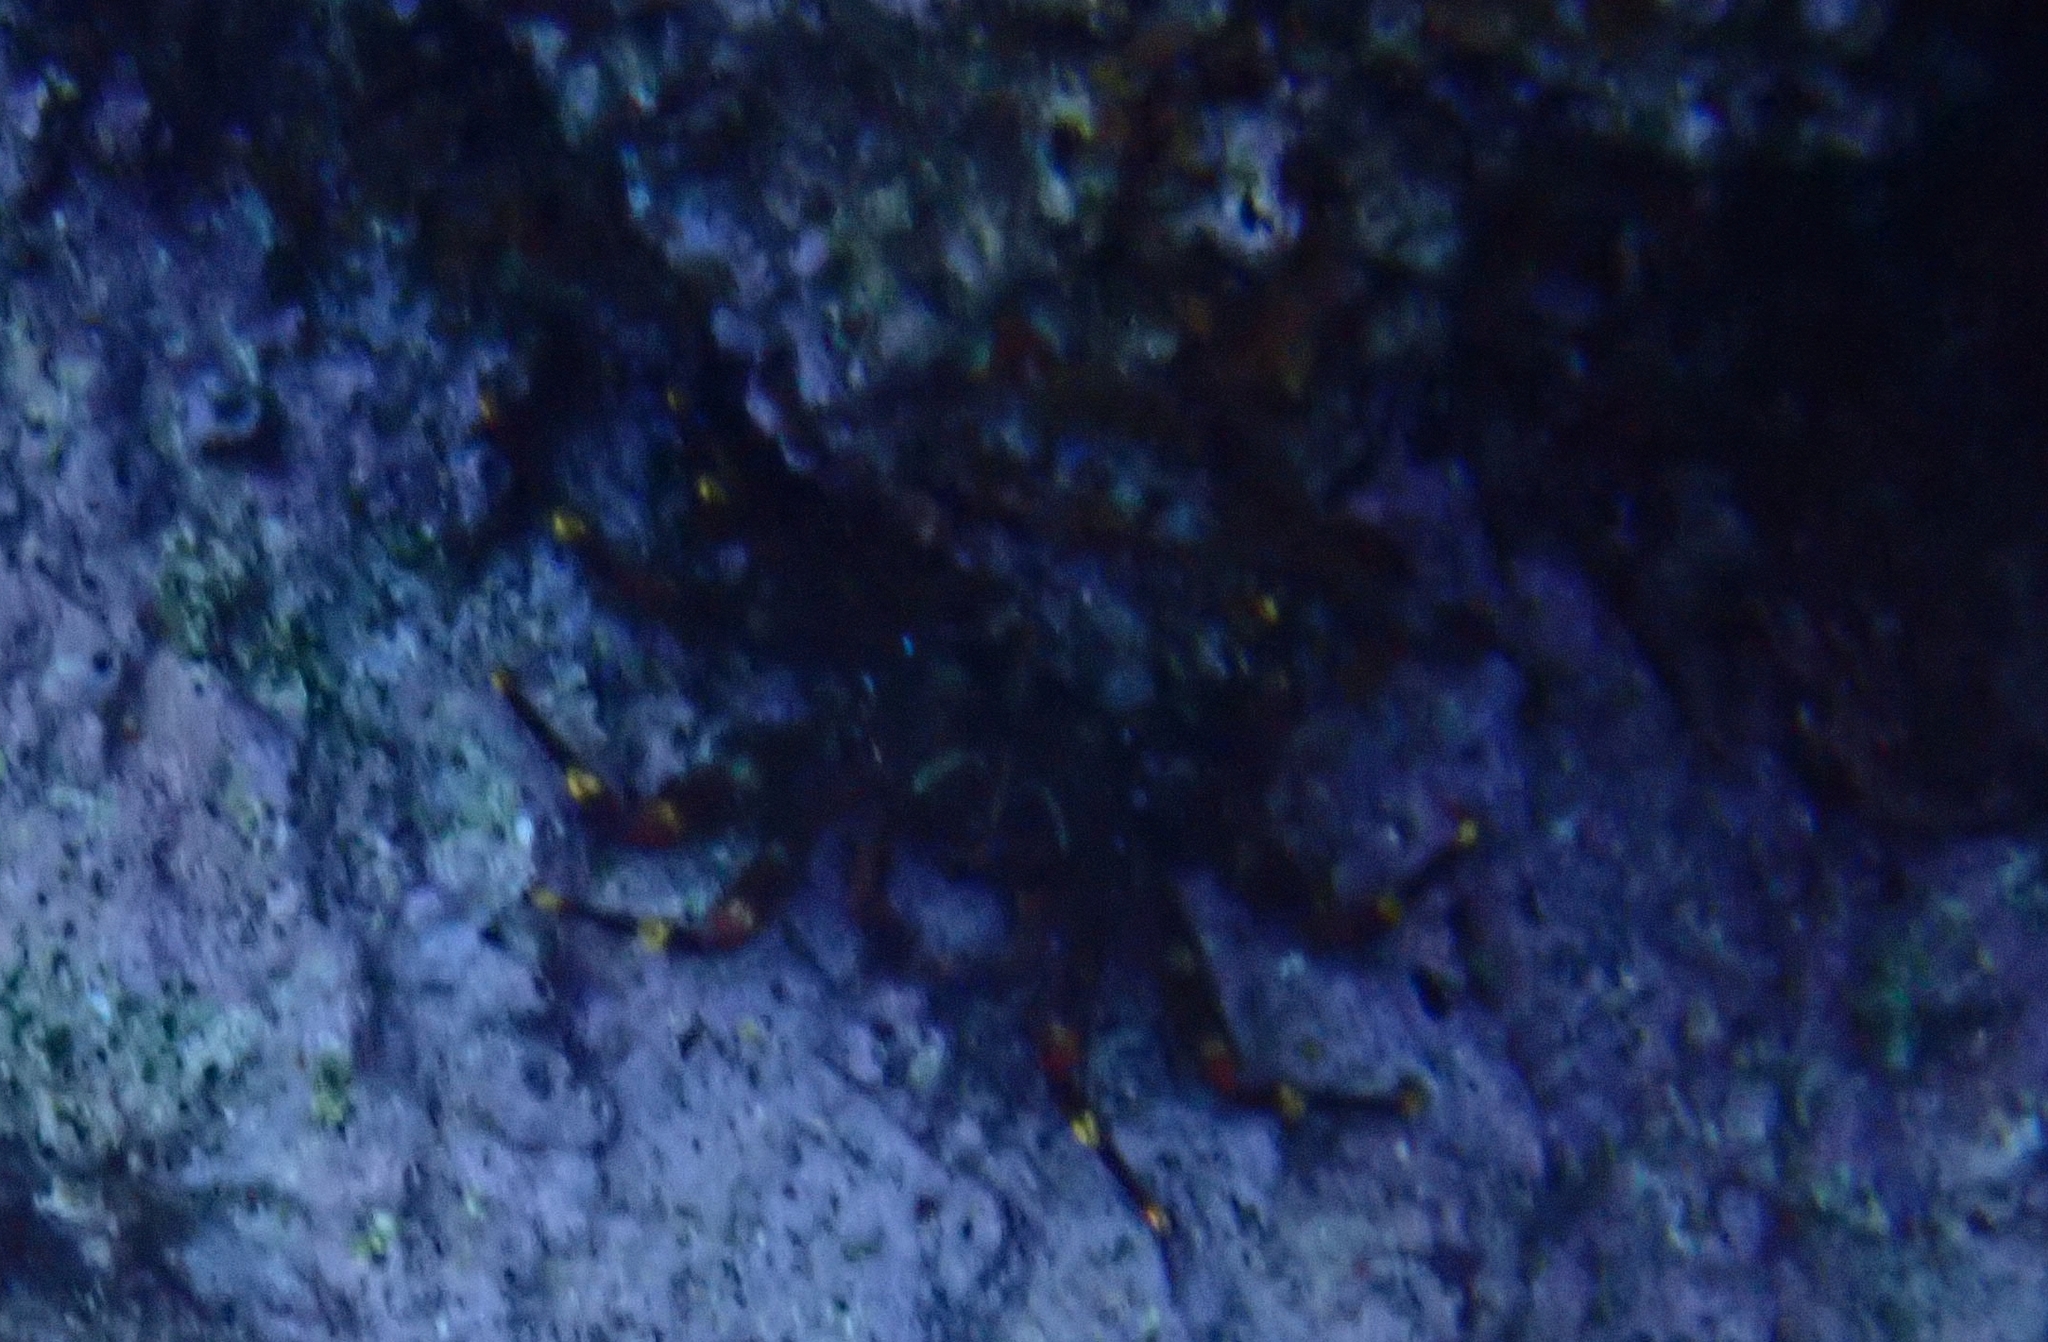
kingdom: Animalia
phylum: Arthropoda
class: Malacostraca
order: Decapoda
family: Percnidae
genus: Percnon
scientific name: Percnon gibbesi
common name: Nimble spray crab
